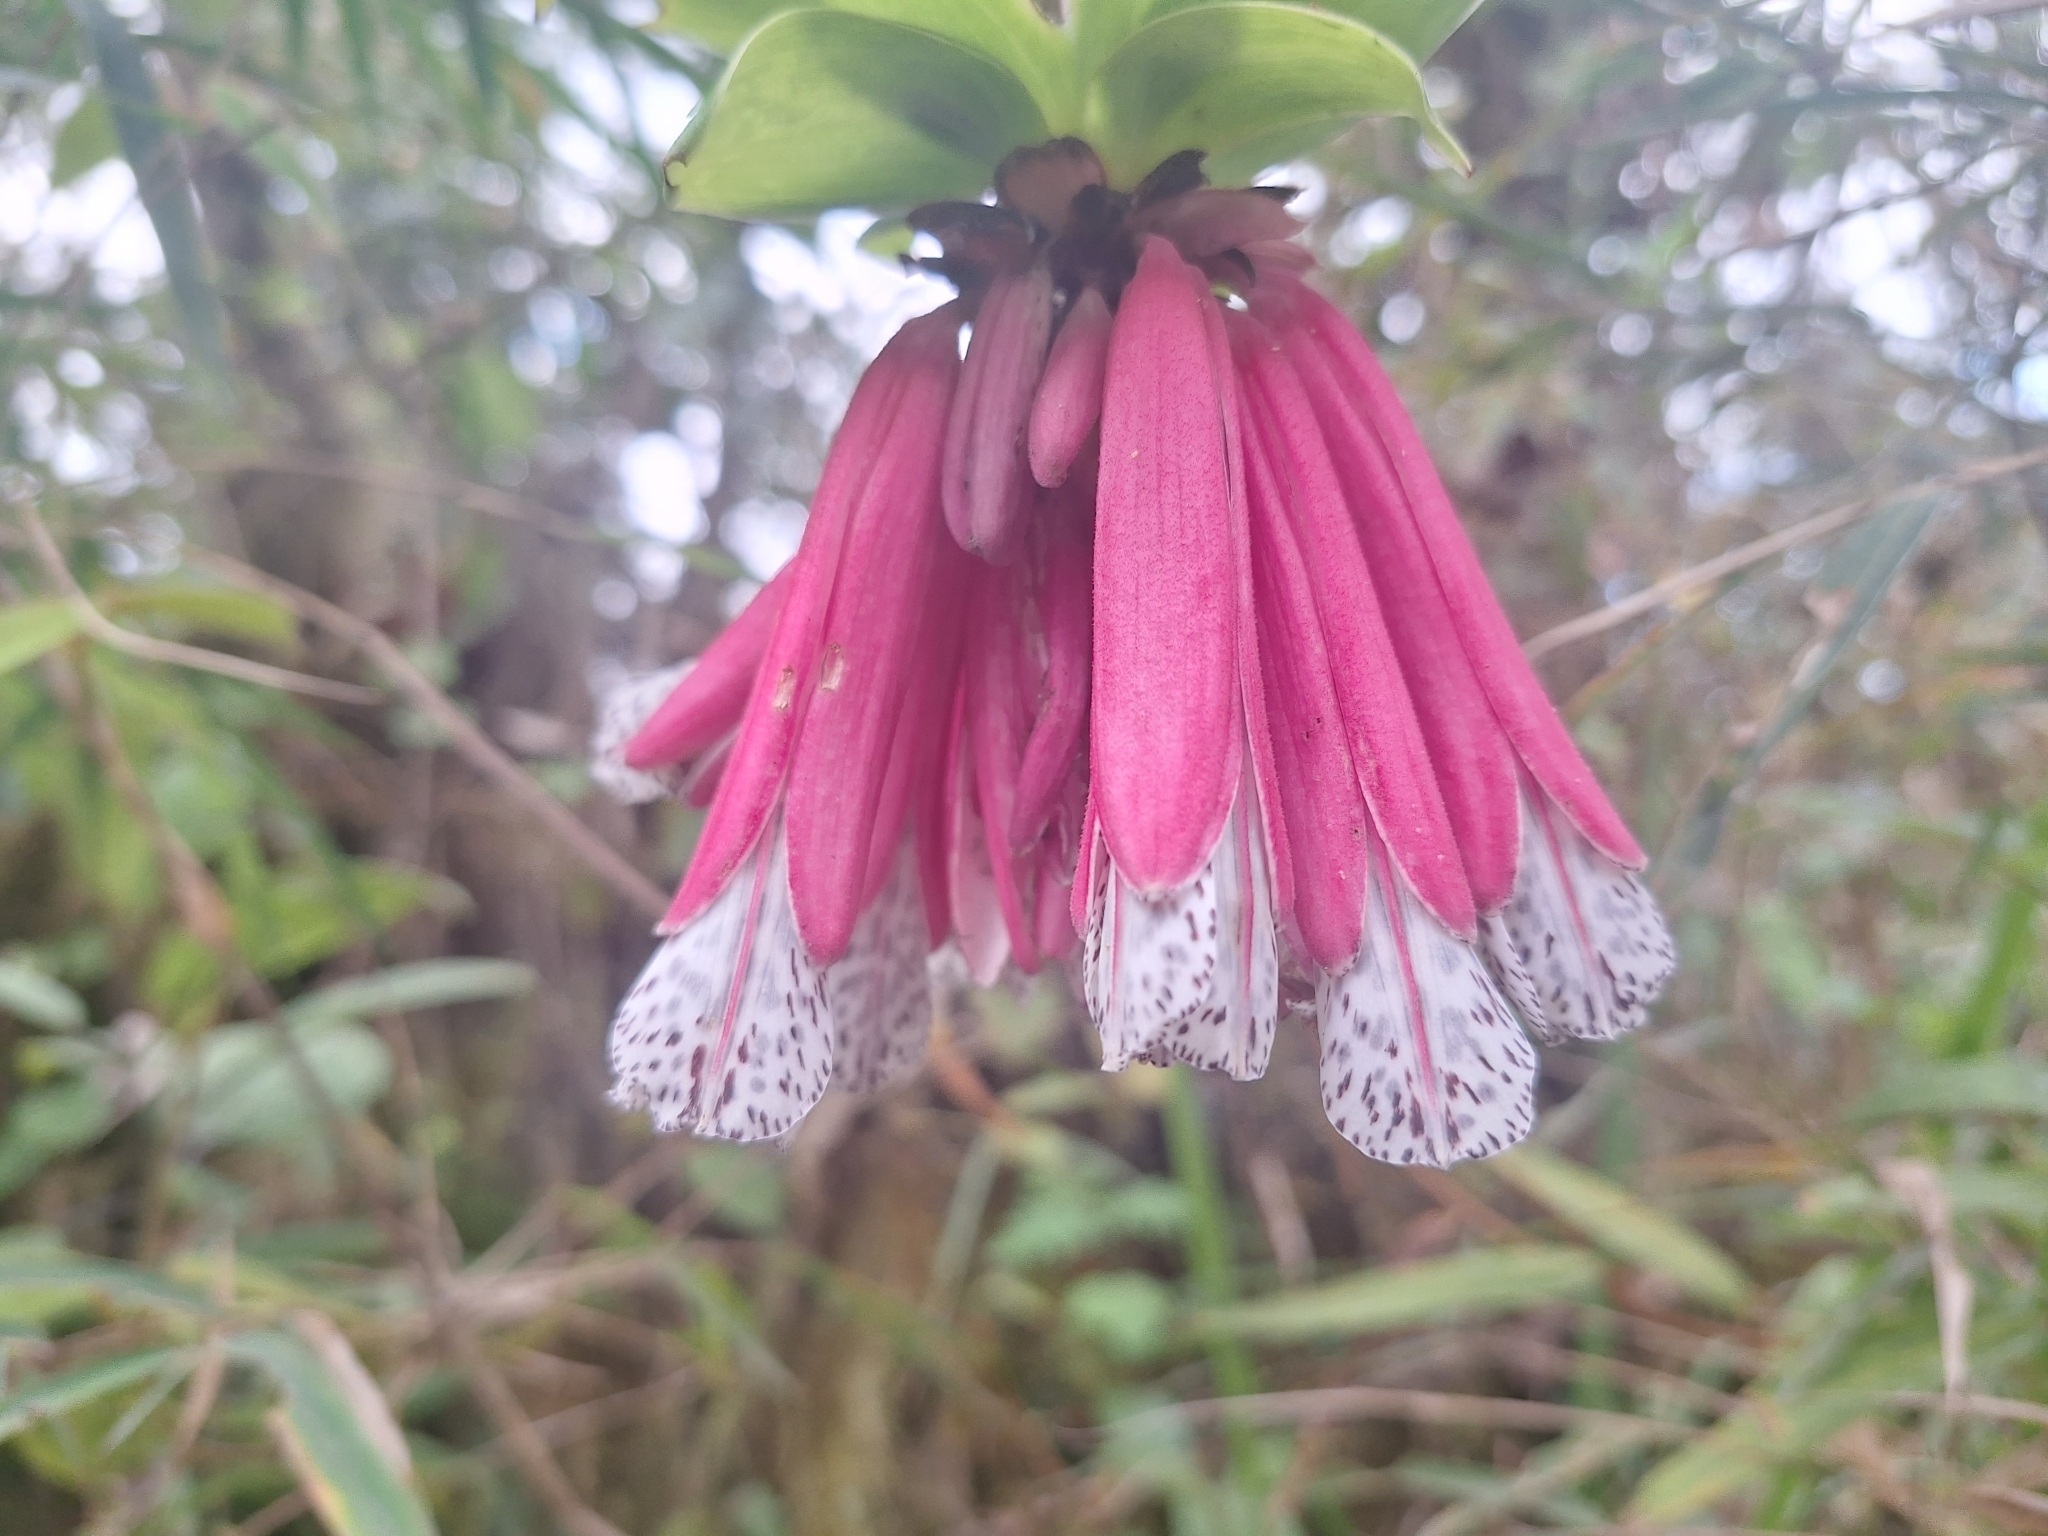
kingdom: Plantae
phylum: Tracheophyta
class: Liliopsida
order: Liliales
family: Alstroemeriaceae
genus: Bomarea
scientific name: Bomarea pardina
